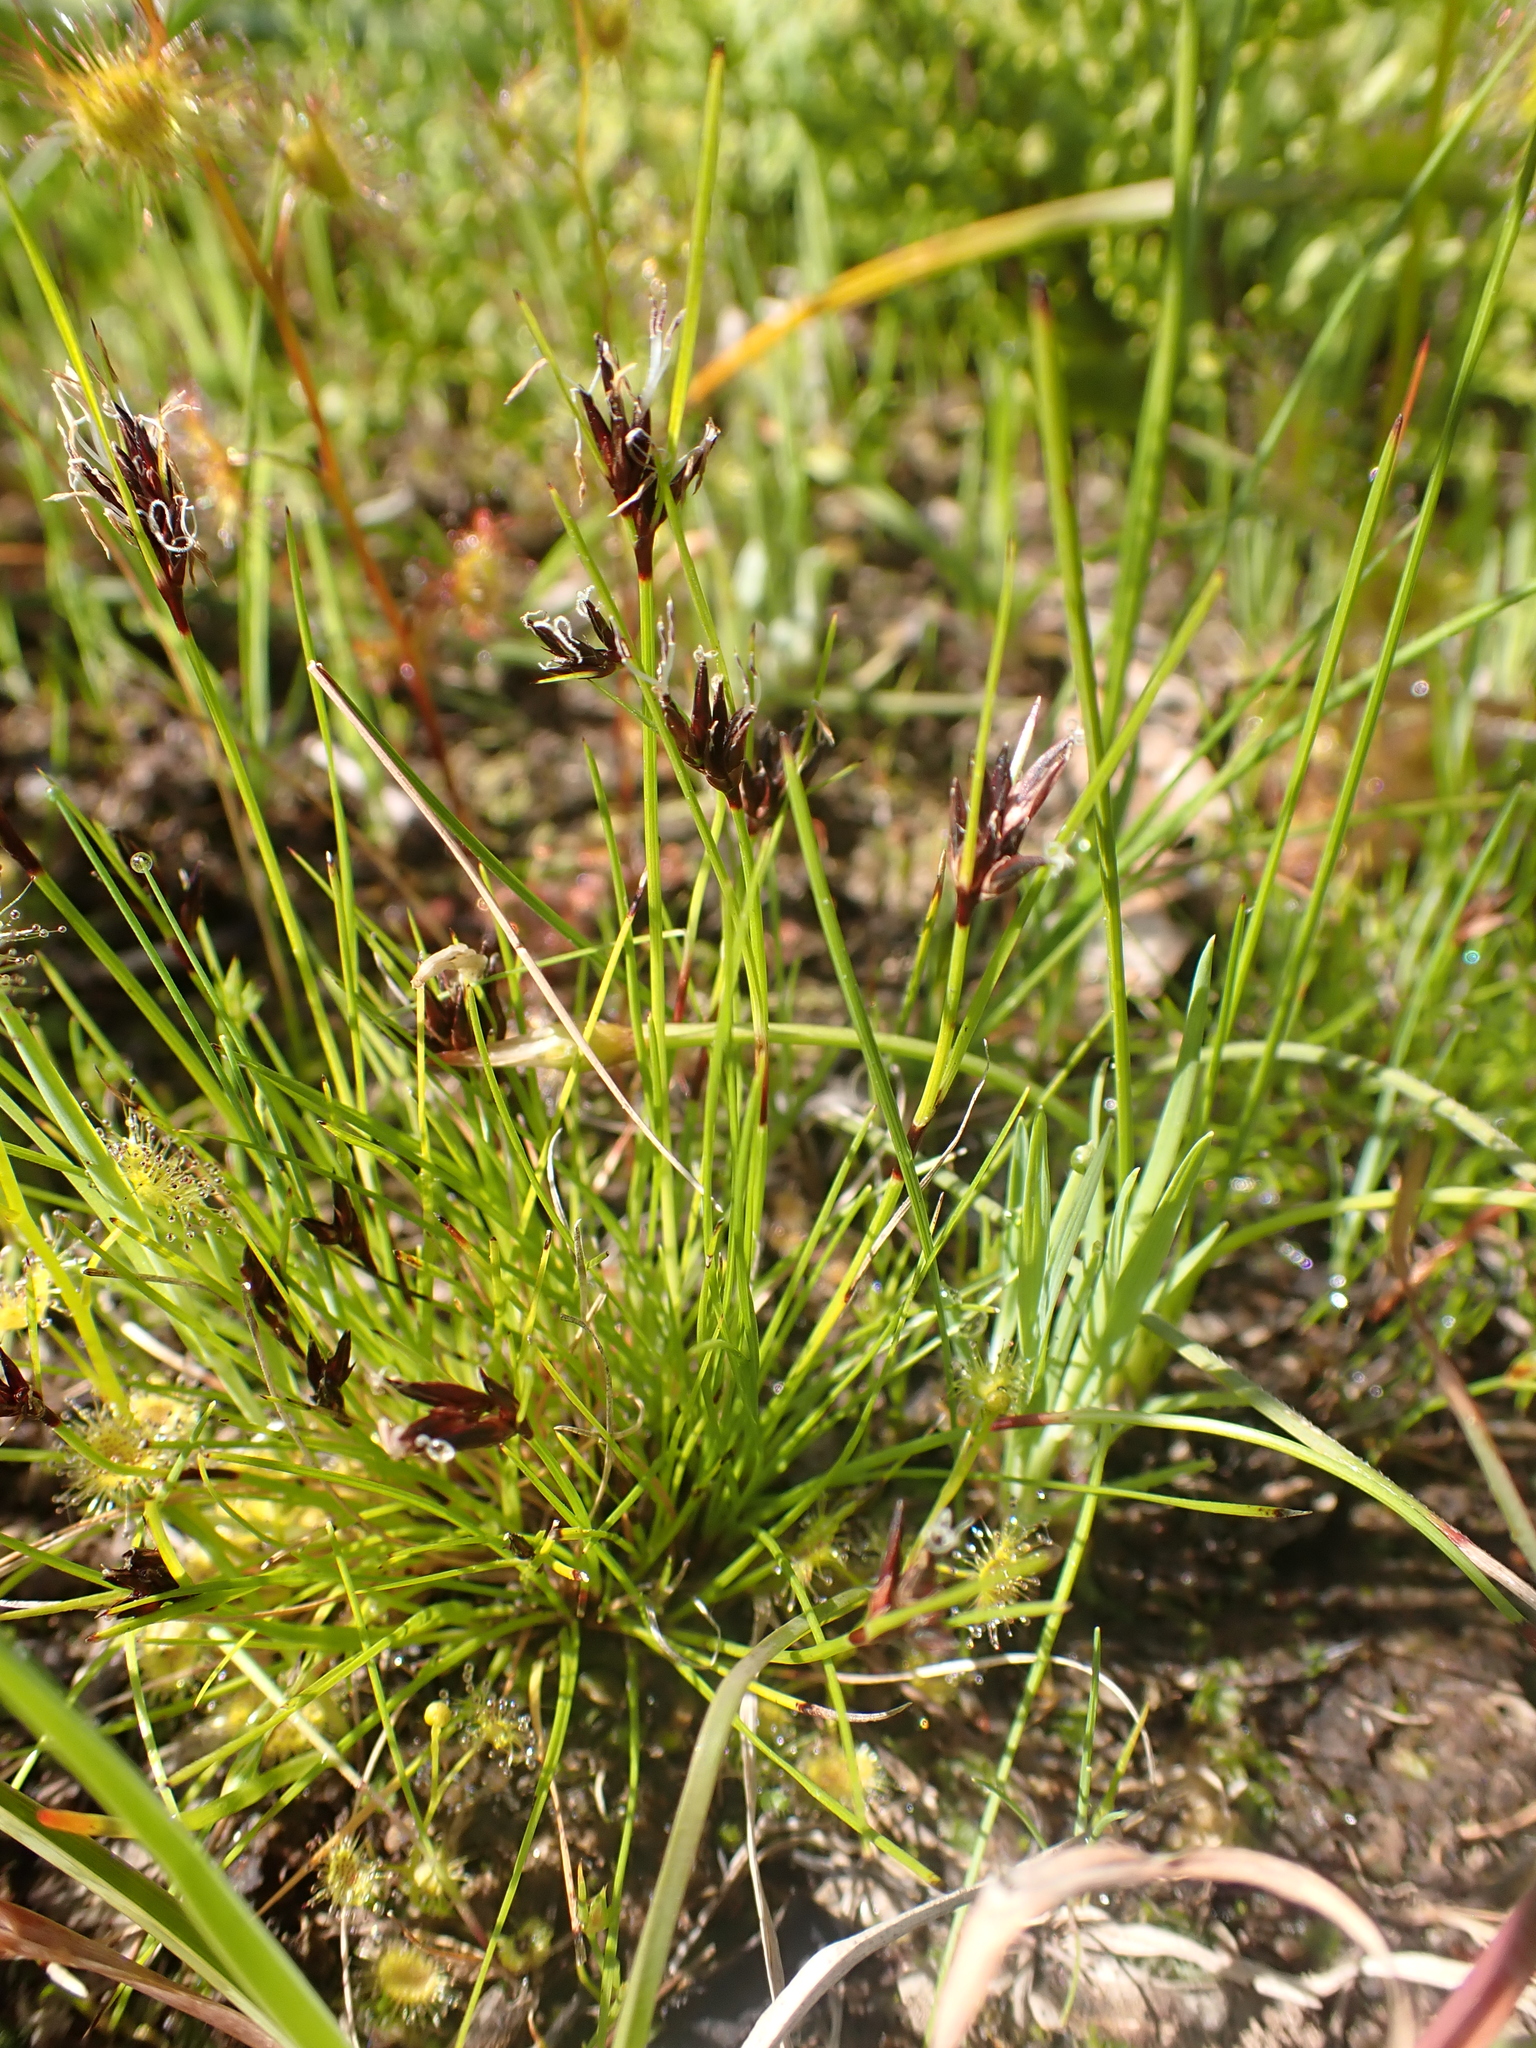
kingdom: Plantae
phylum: Tracheophyta
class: Liliopsida
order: Poales
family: Cyperaceae
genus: Schoenus
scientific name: Schoenus apogon
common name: Smooth bogrush
